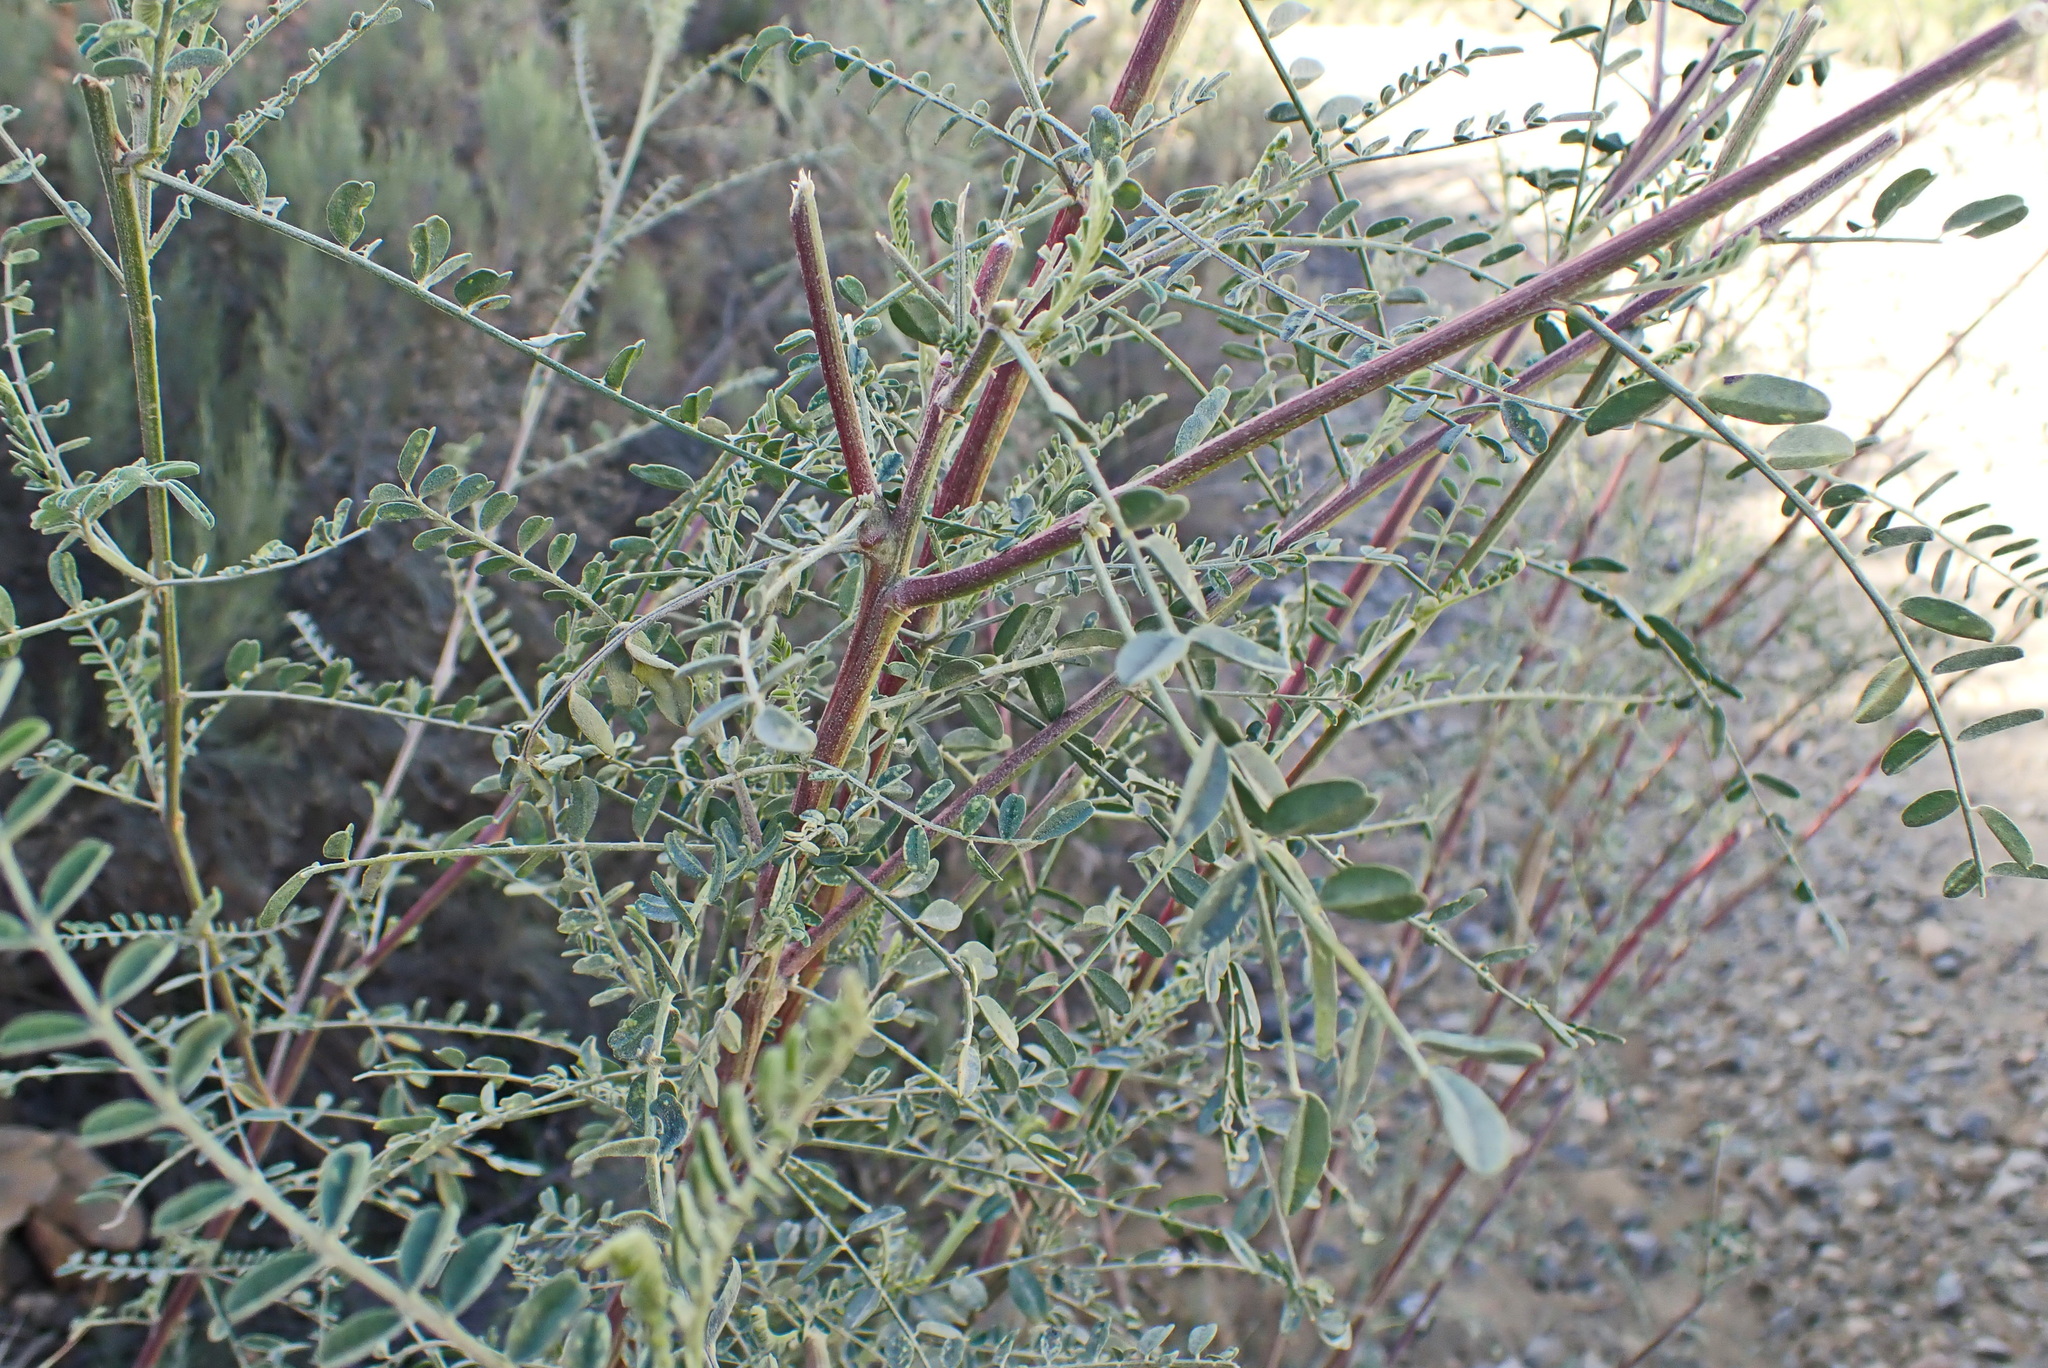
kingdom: Plantae
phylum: Tracheophyta
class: Magnoliopsida
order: Fabales
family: Fabaceae
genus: Lessertia
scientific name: Lessertia frutescens
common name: Balloon-pea
